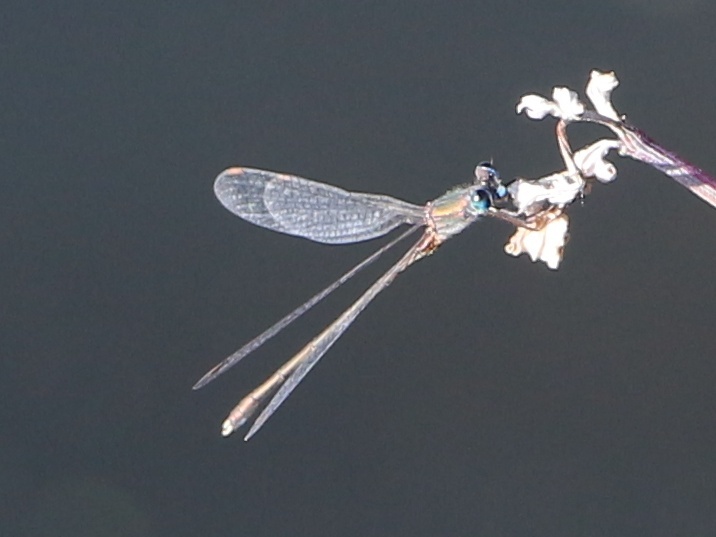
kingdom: Animalia
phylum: Arthropoda
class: Insecta
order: Odonata
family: Lestidae
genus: Chalcolestes
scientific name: Chalcolestes parvidens
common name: Eastern willow spreadwing
